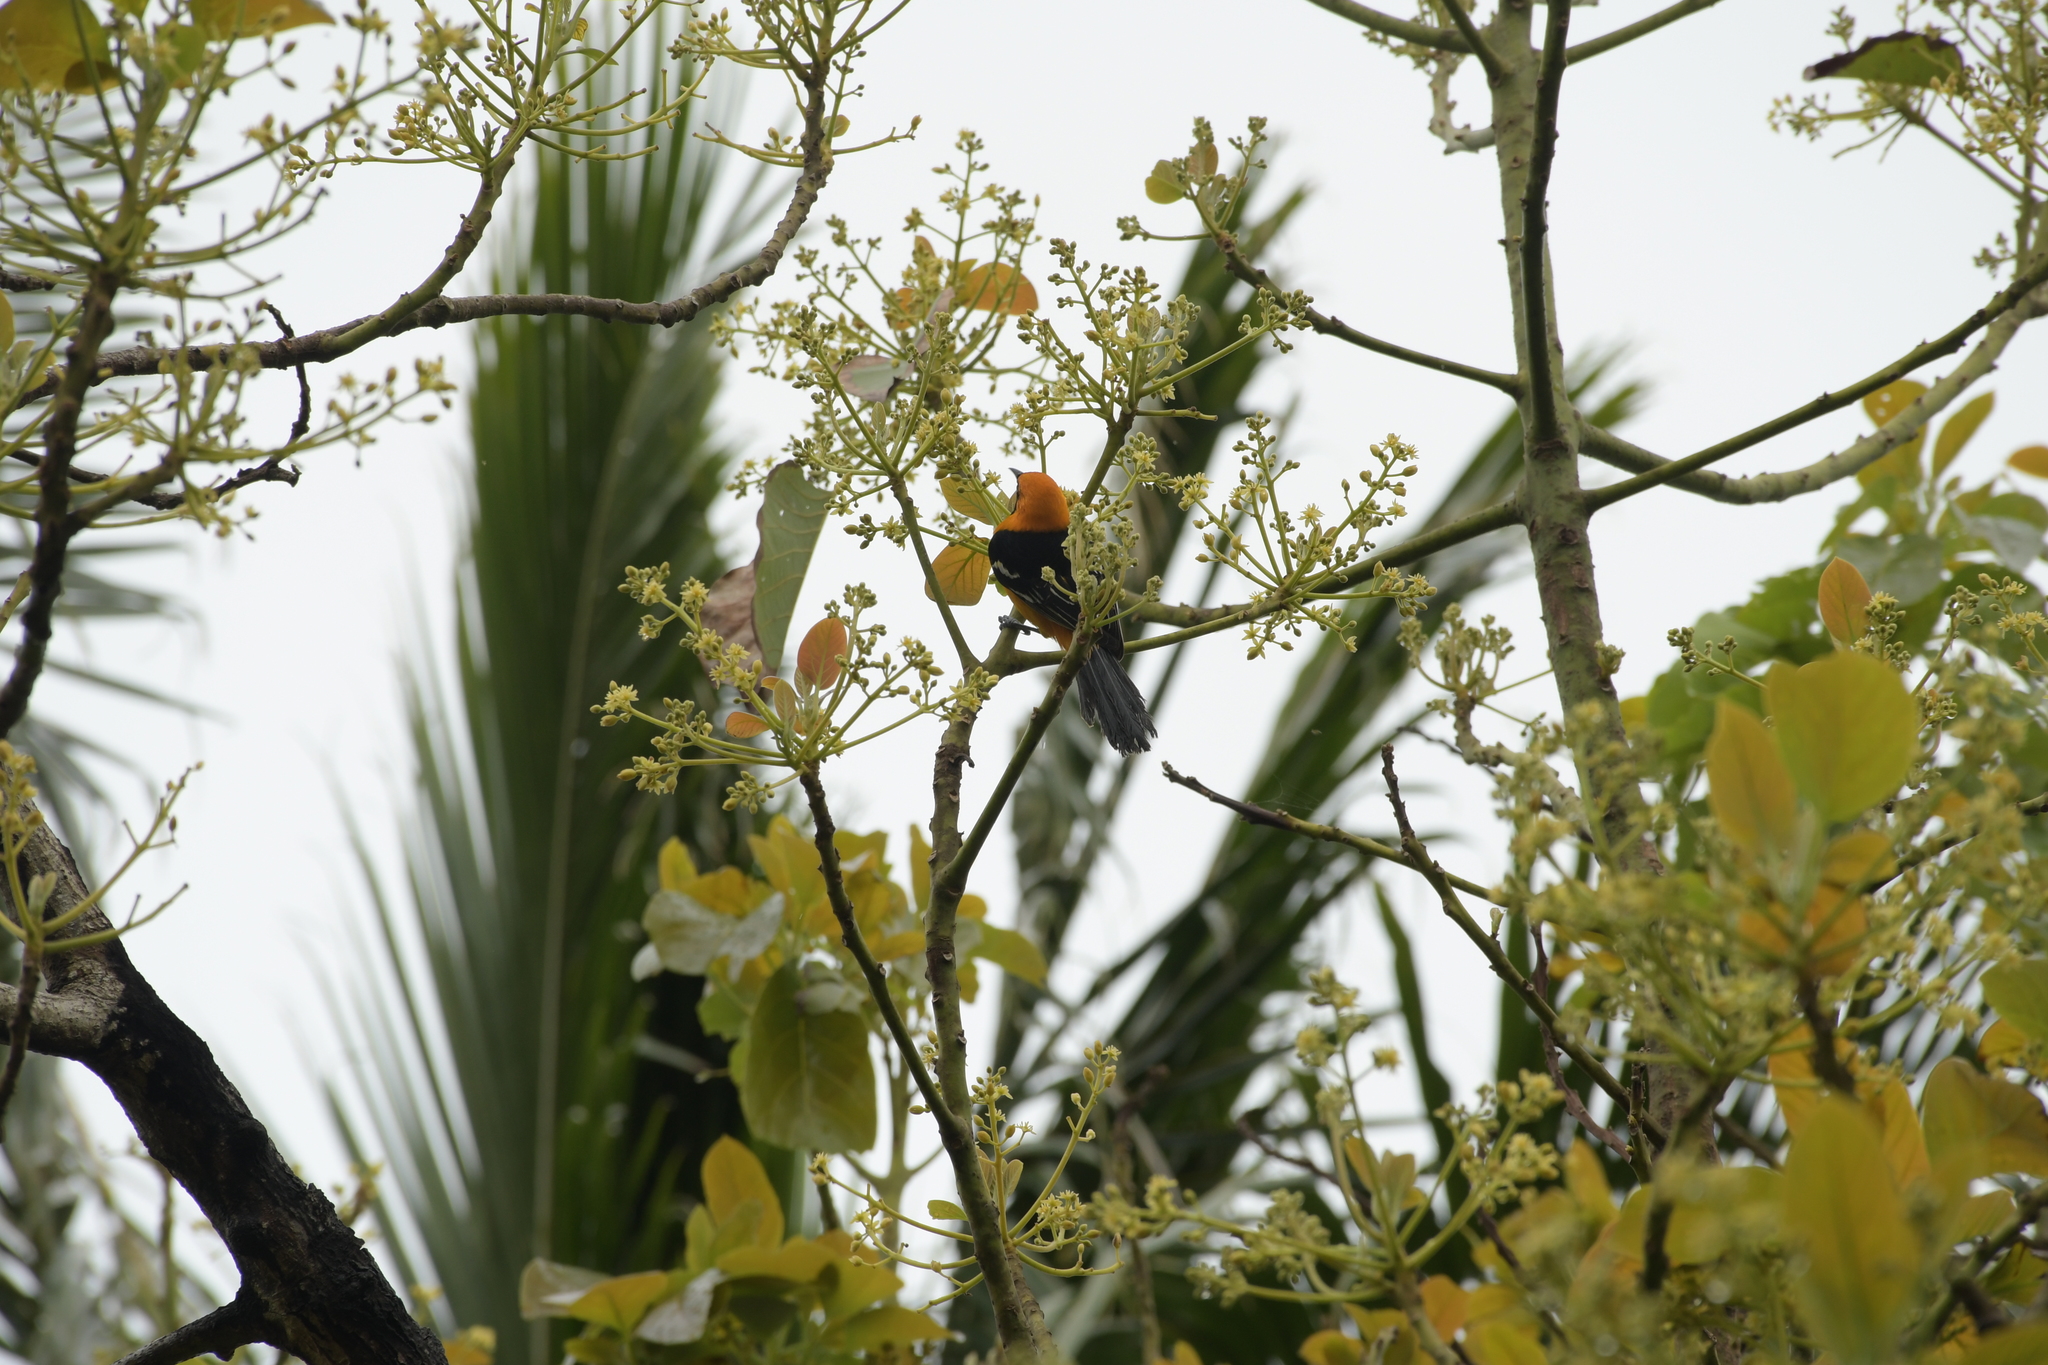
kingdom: Animalia
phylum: Chordata
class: Aves
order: Passeriformes
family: Icteridae
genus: Icterus
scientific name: Icterus cucullatus
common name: Hooded oriole
